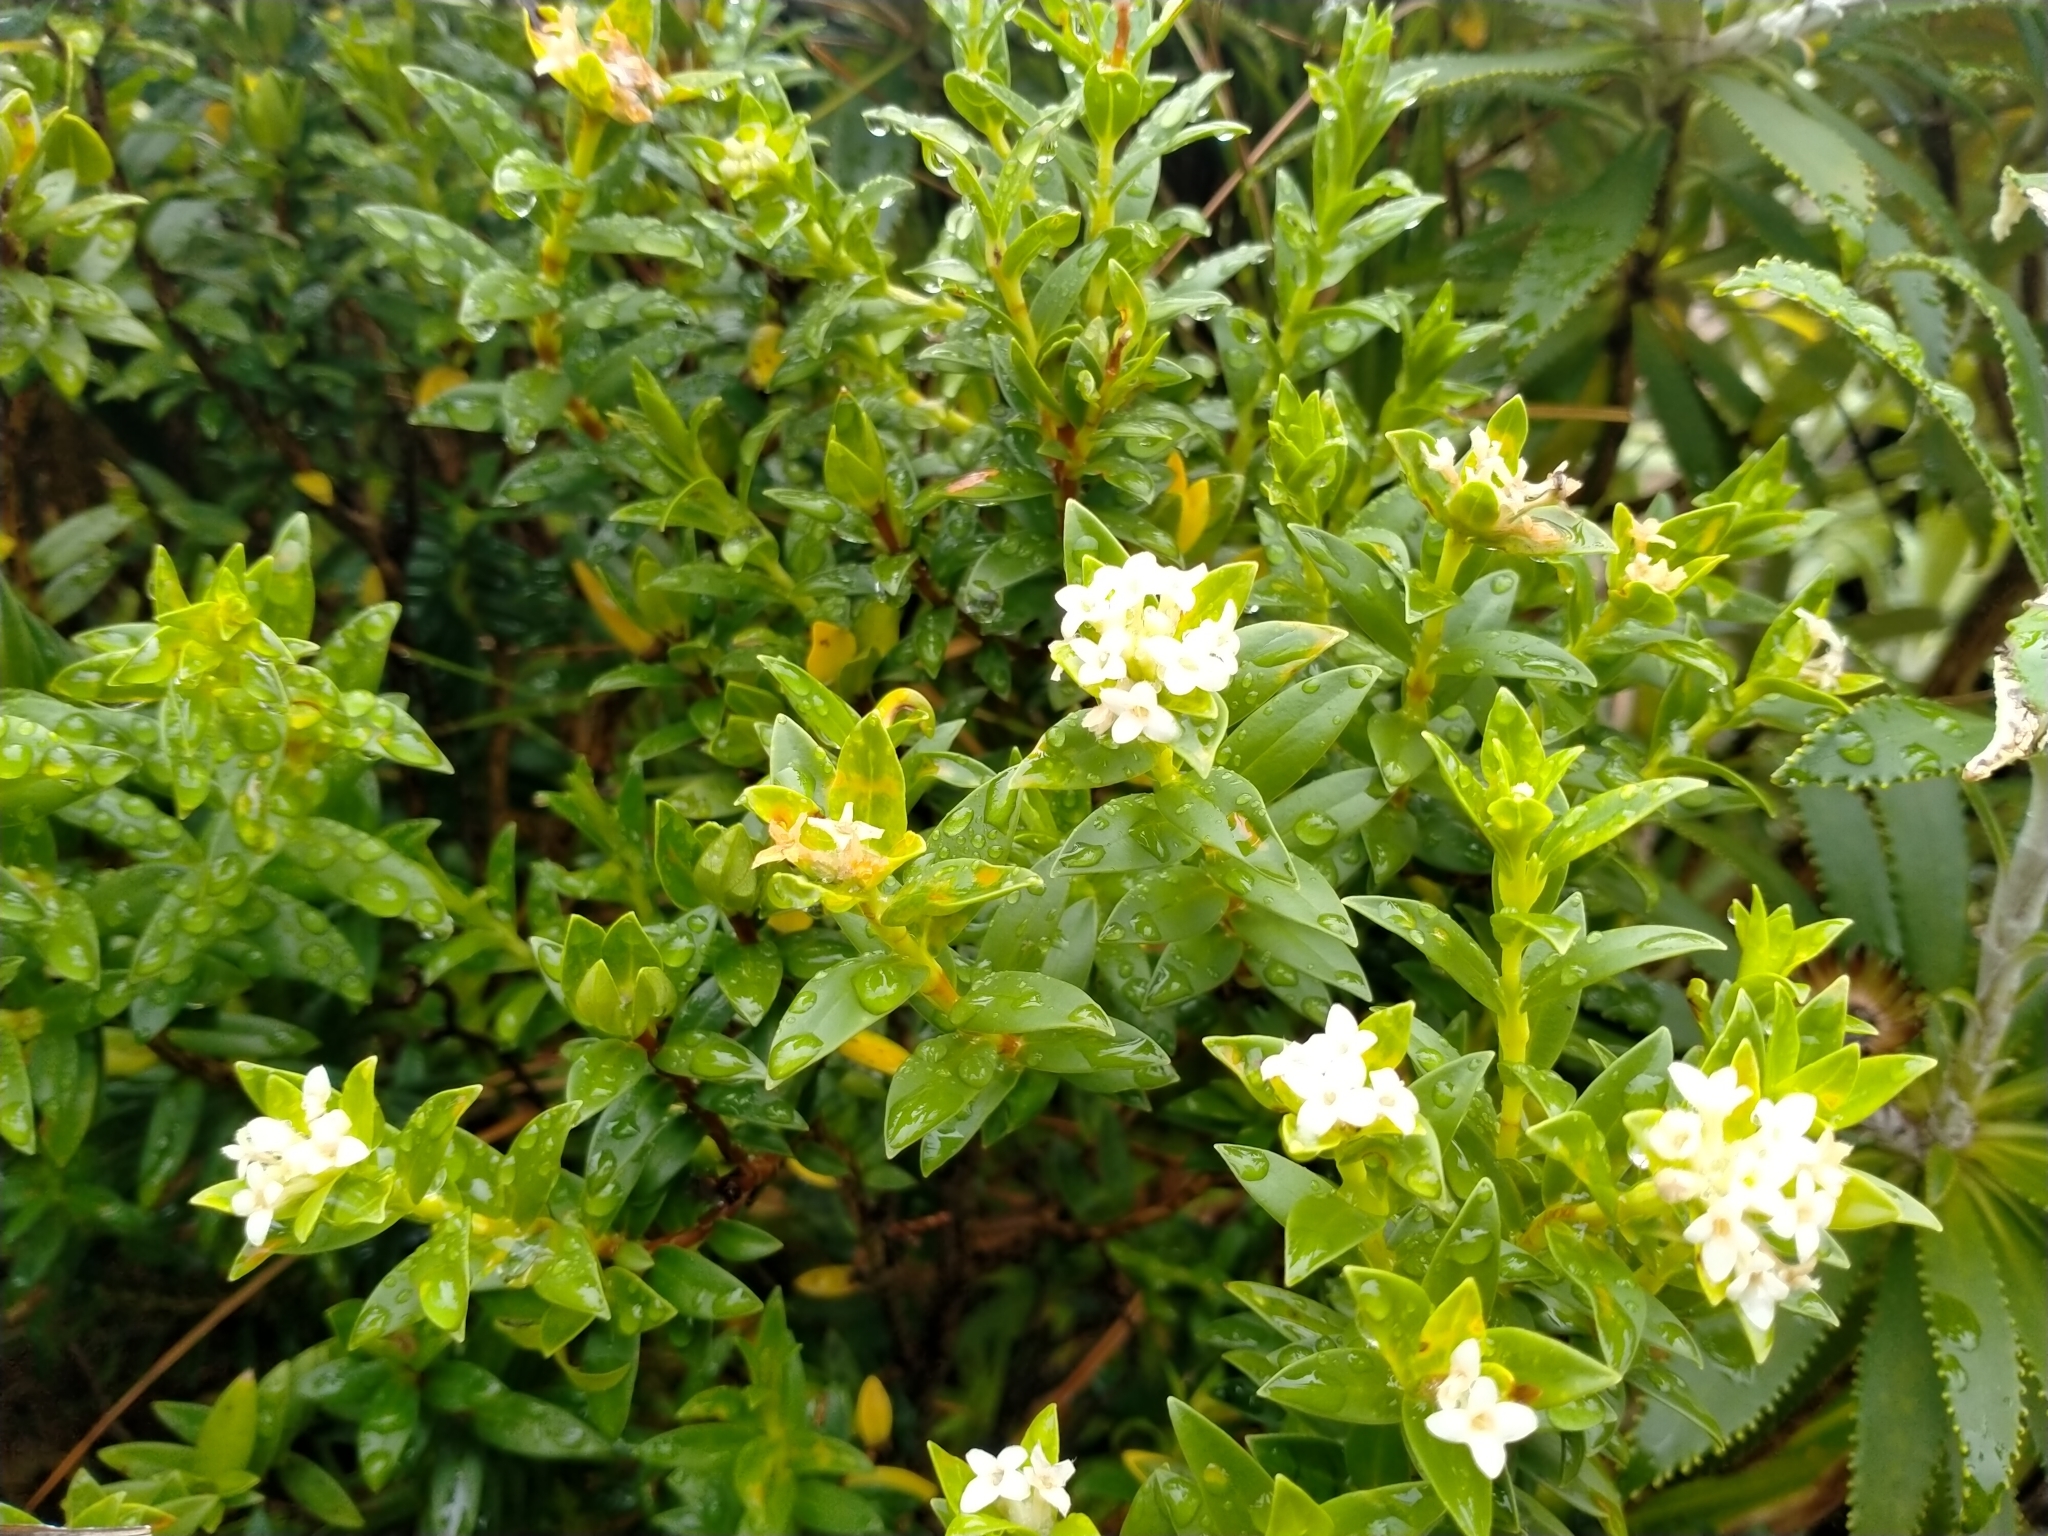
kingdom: Plantae
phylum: Tracheophyta
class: Magnoliopsida
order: Malvales
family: Thymelaeaceae
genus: Pimelea
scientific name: Pimelea gnidia
